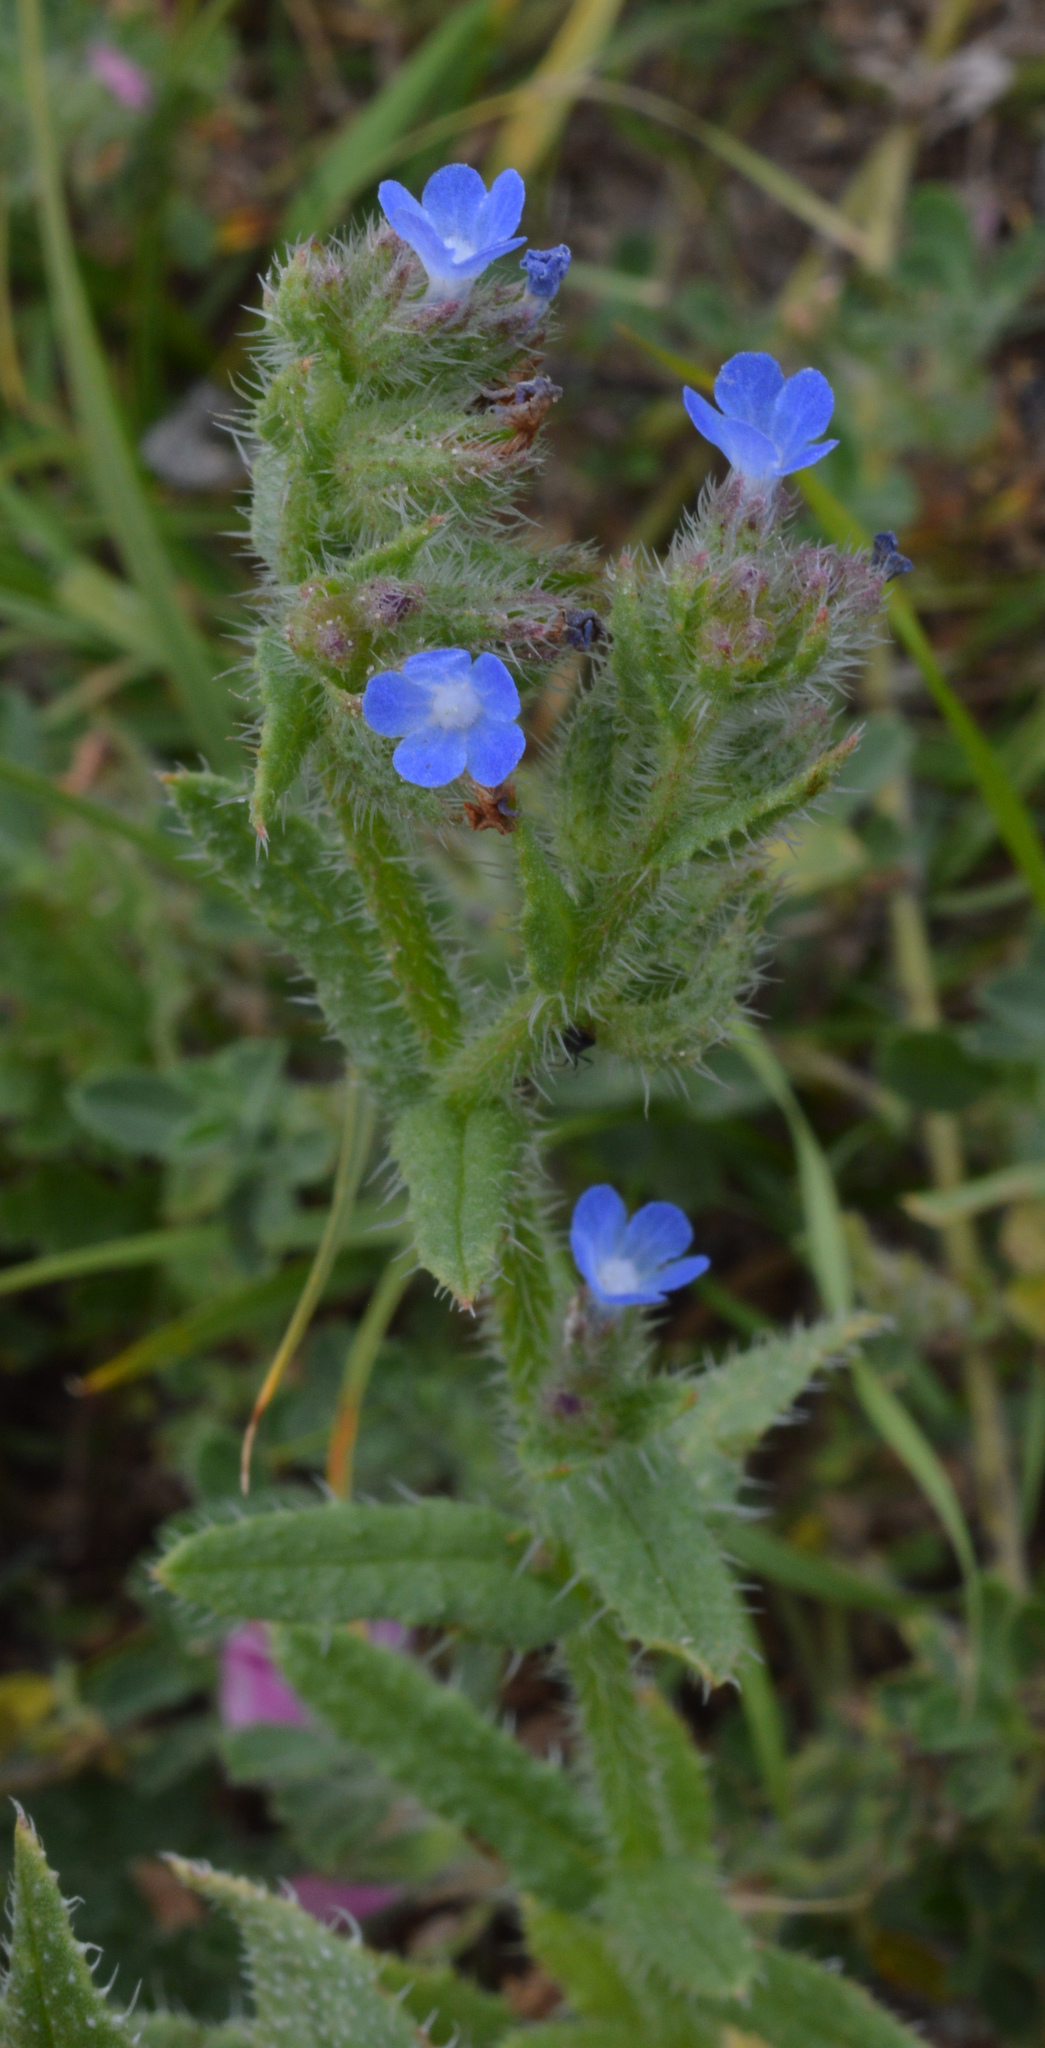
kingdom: Plantae
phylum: Tracheophyta
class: Magnoliopsida
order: Boraginales
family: Boraginaceae
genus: Lycopsis
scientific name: Lycopsis arvensis
